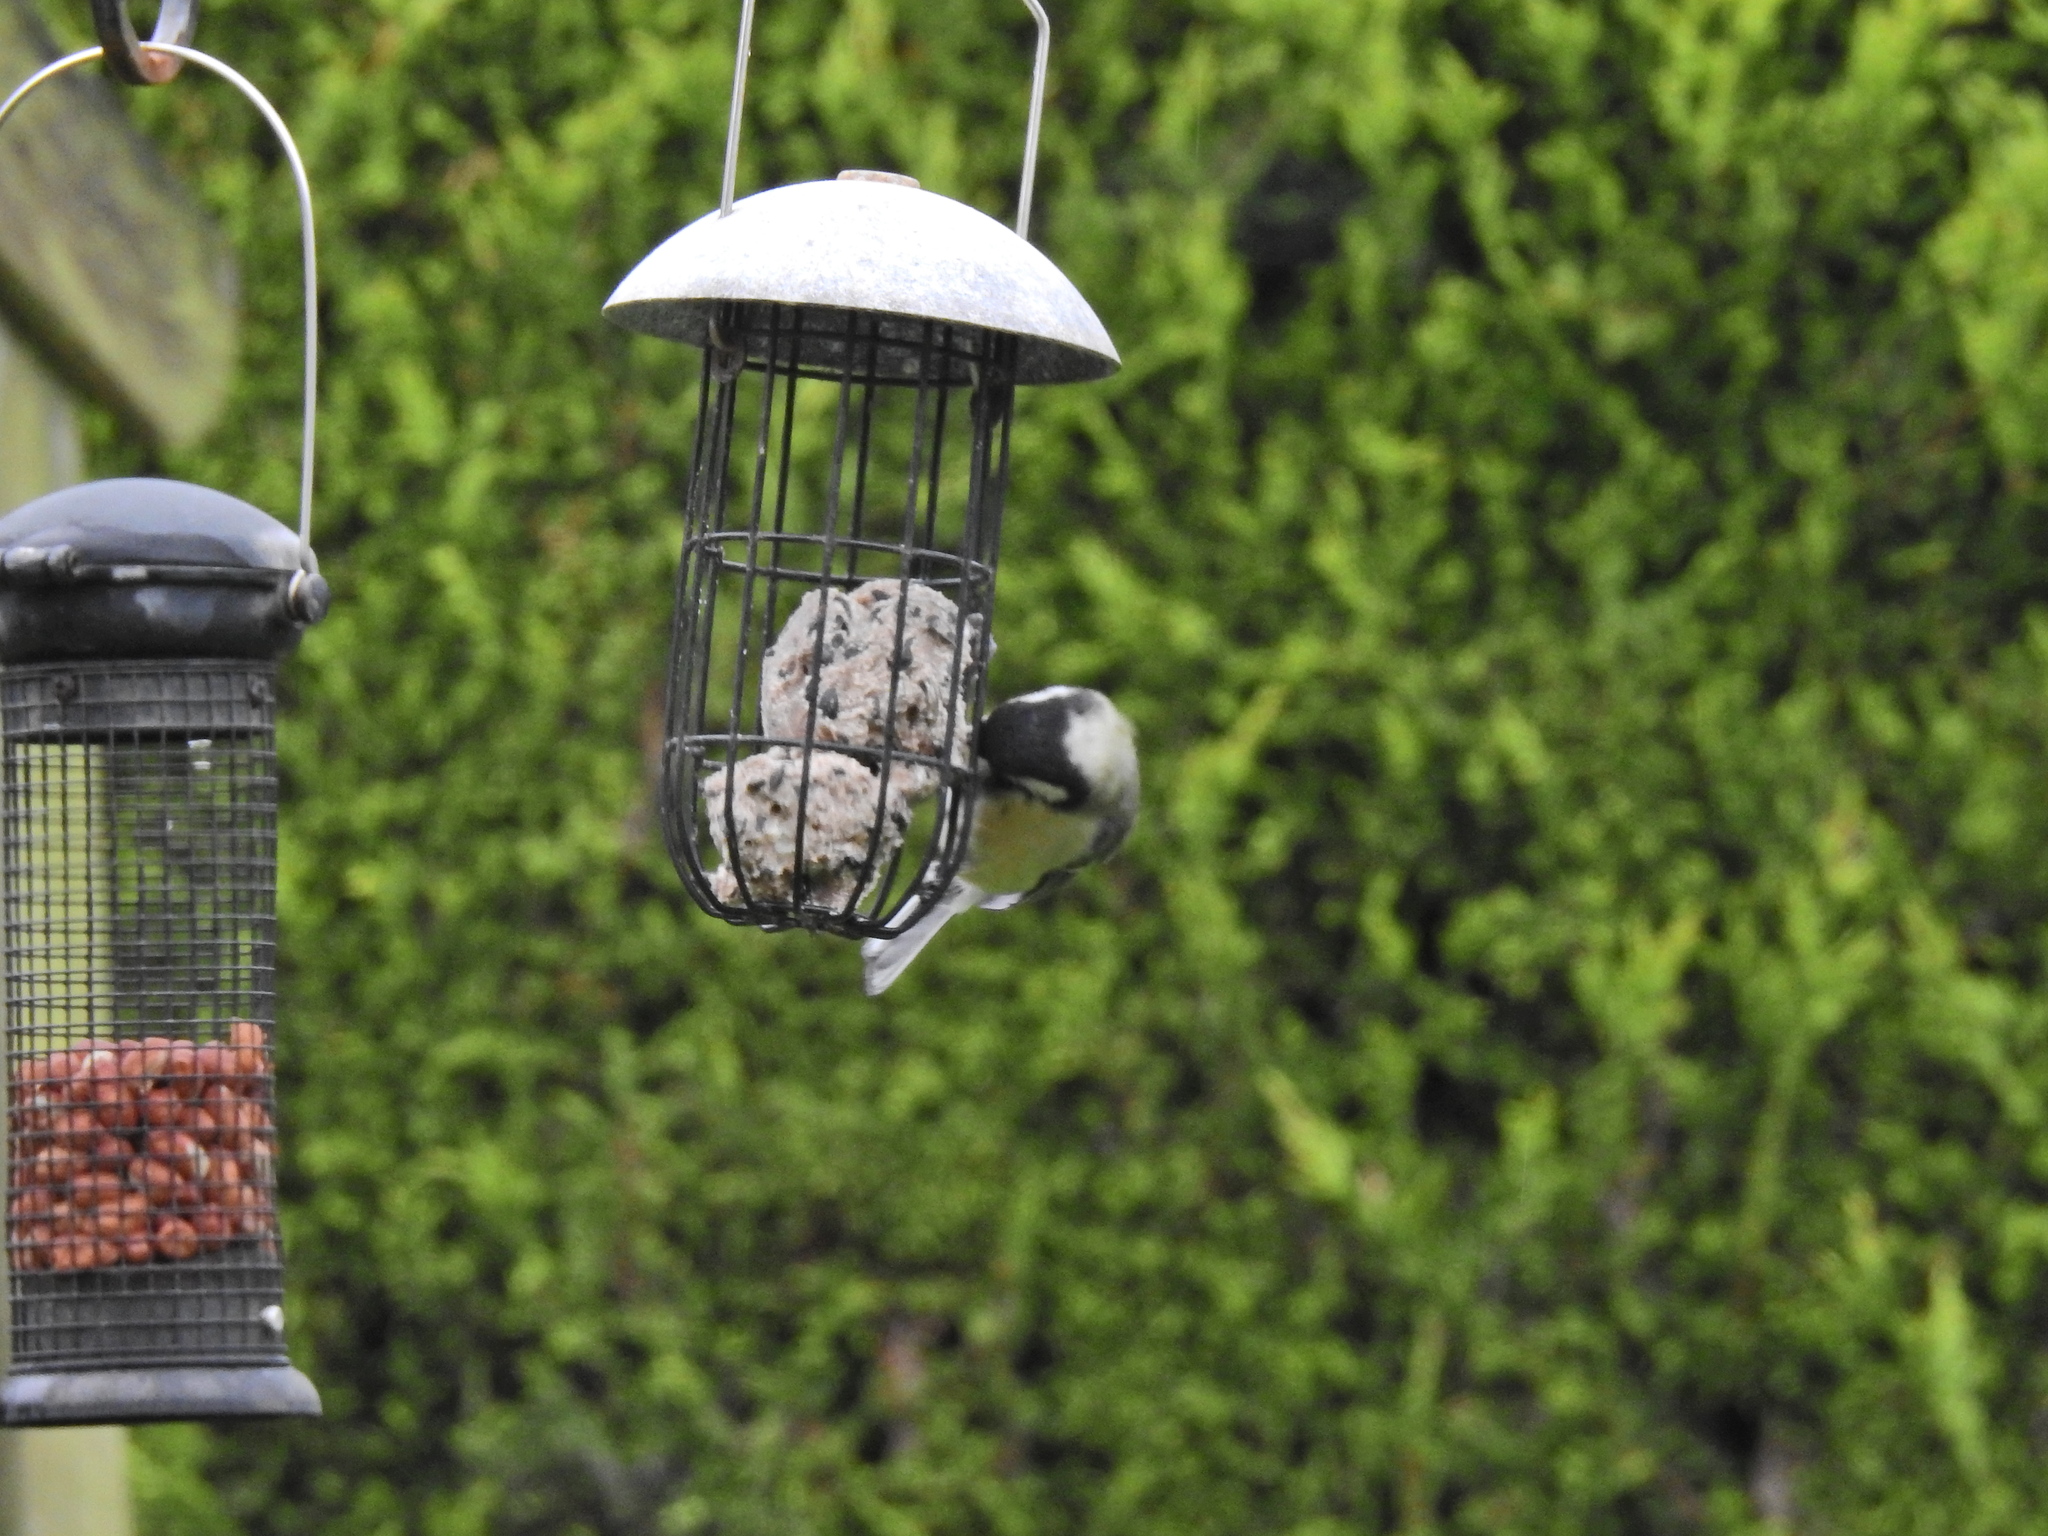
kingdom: Animalia
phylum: Chordata
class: Aves
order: Passeriformes
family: Paridae
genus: Periparus
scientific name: Periparus ater
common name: Coal tit
